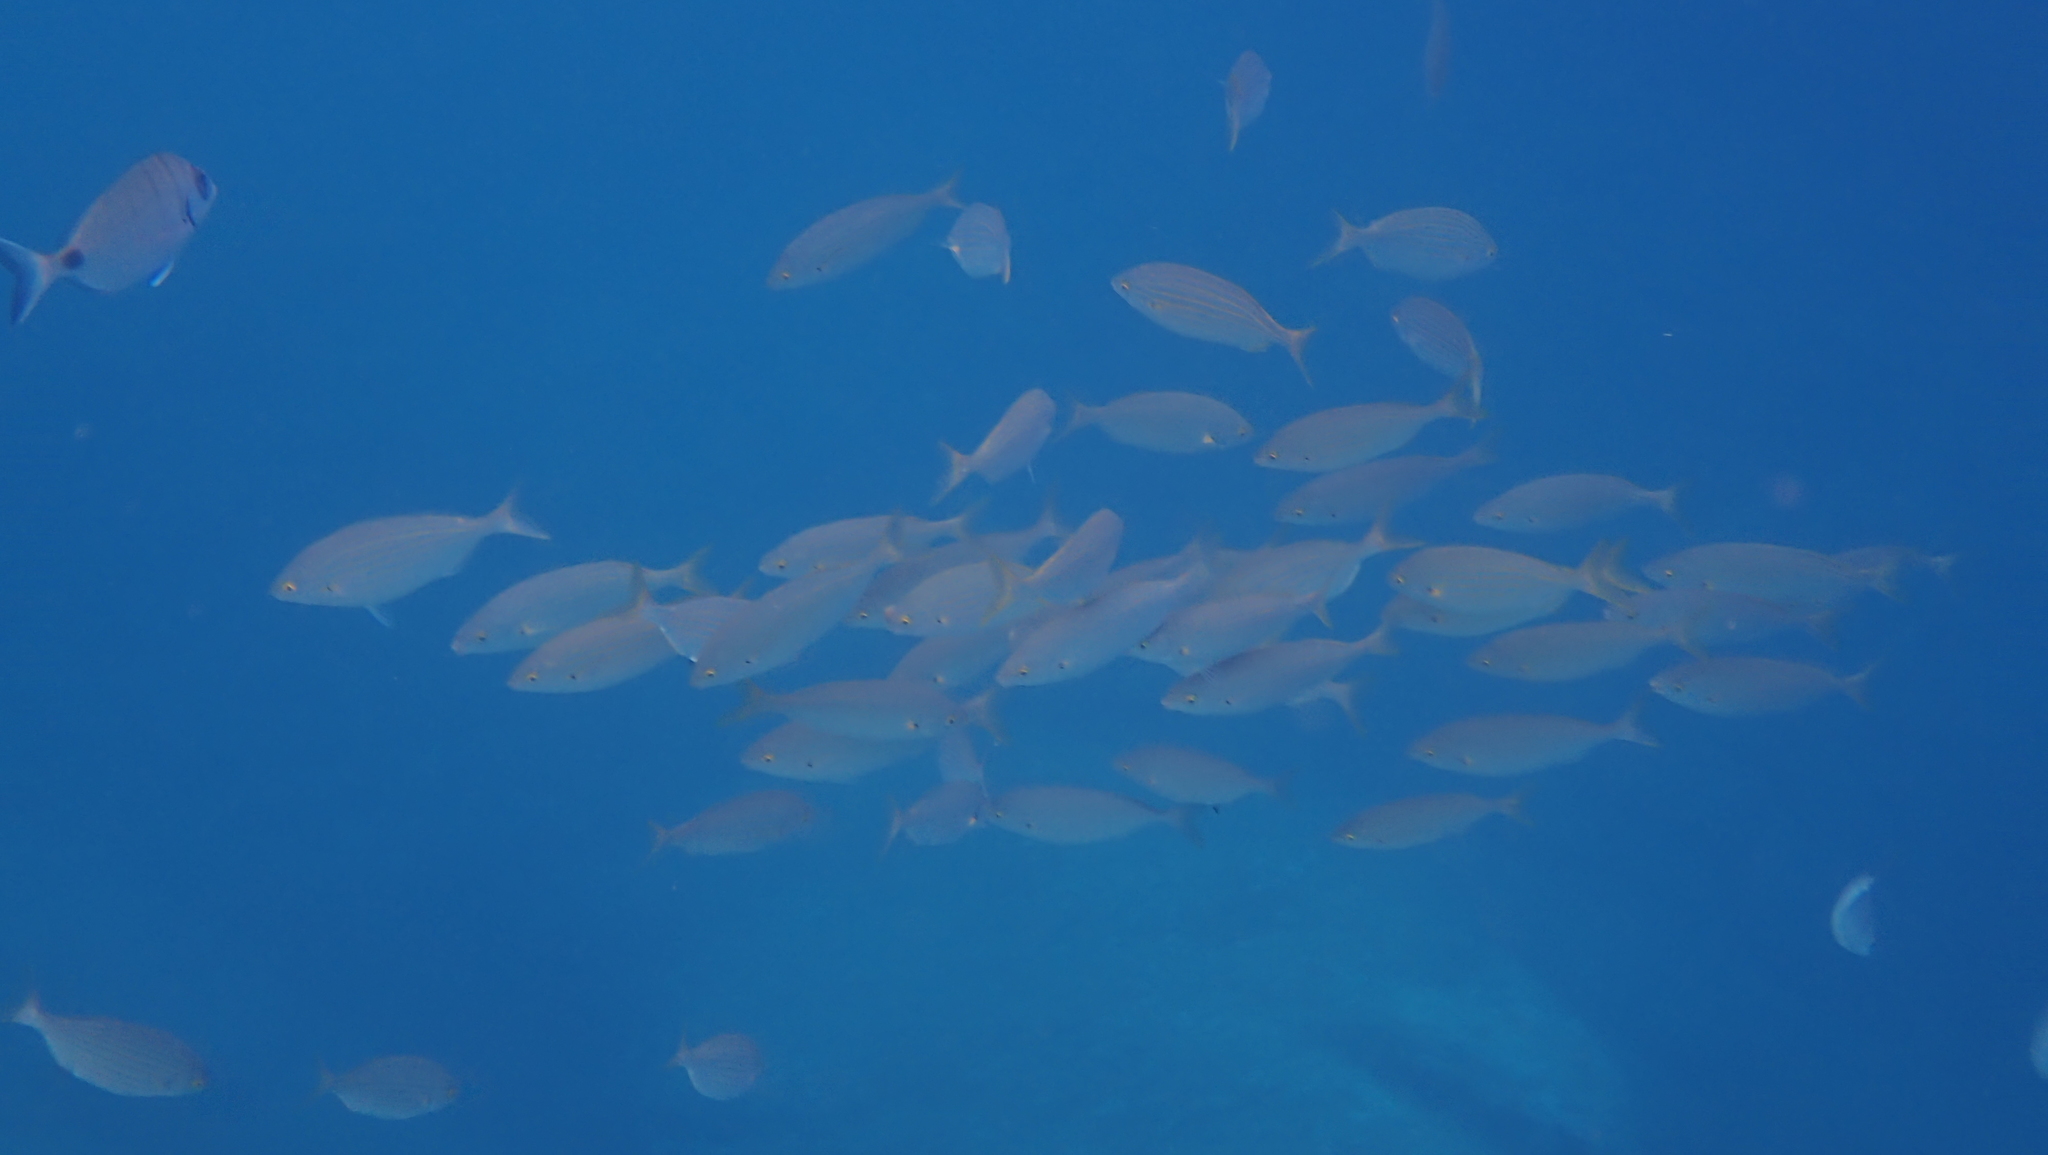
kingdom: Animalia
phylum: Chordata
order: Perciformes
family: Sparidae
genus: Sarpa
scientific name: Sarpa salpa
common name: Salema
